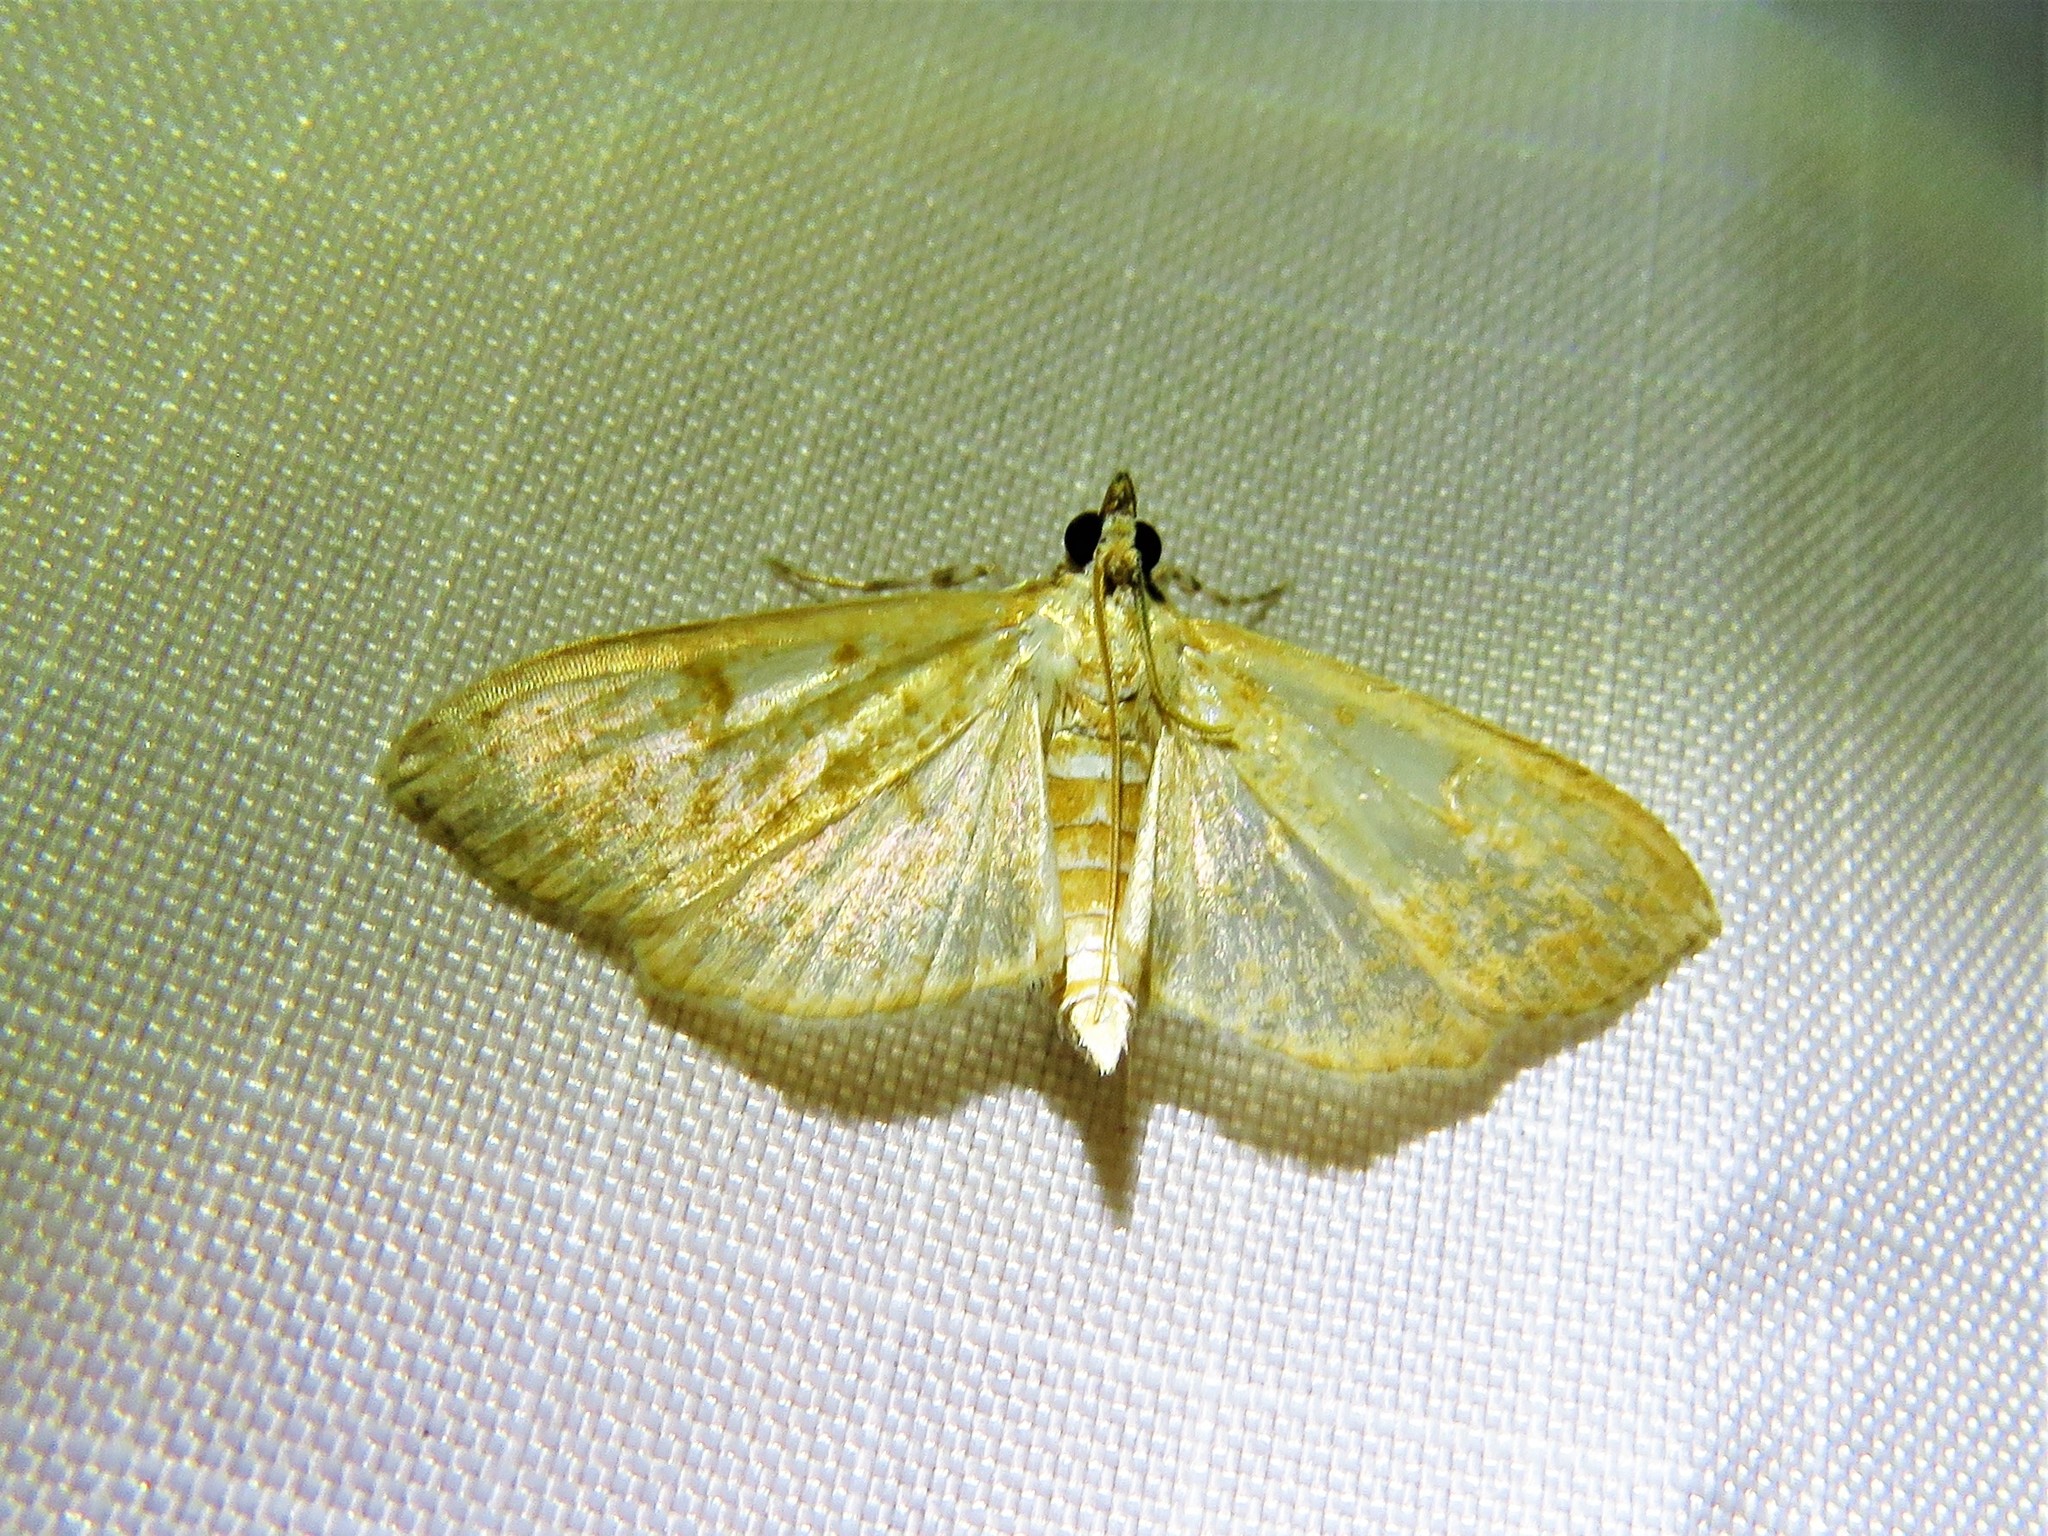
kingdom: Animalia
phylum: Arthropoda
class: Insecta
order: Lepidoptera
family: Crambidae
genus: Palpita
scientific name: Palpita freemanalis
